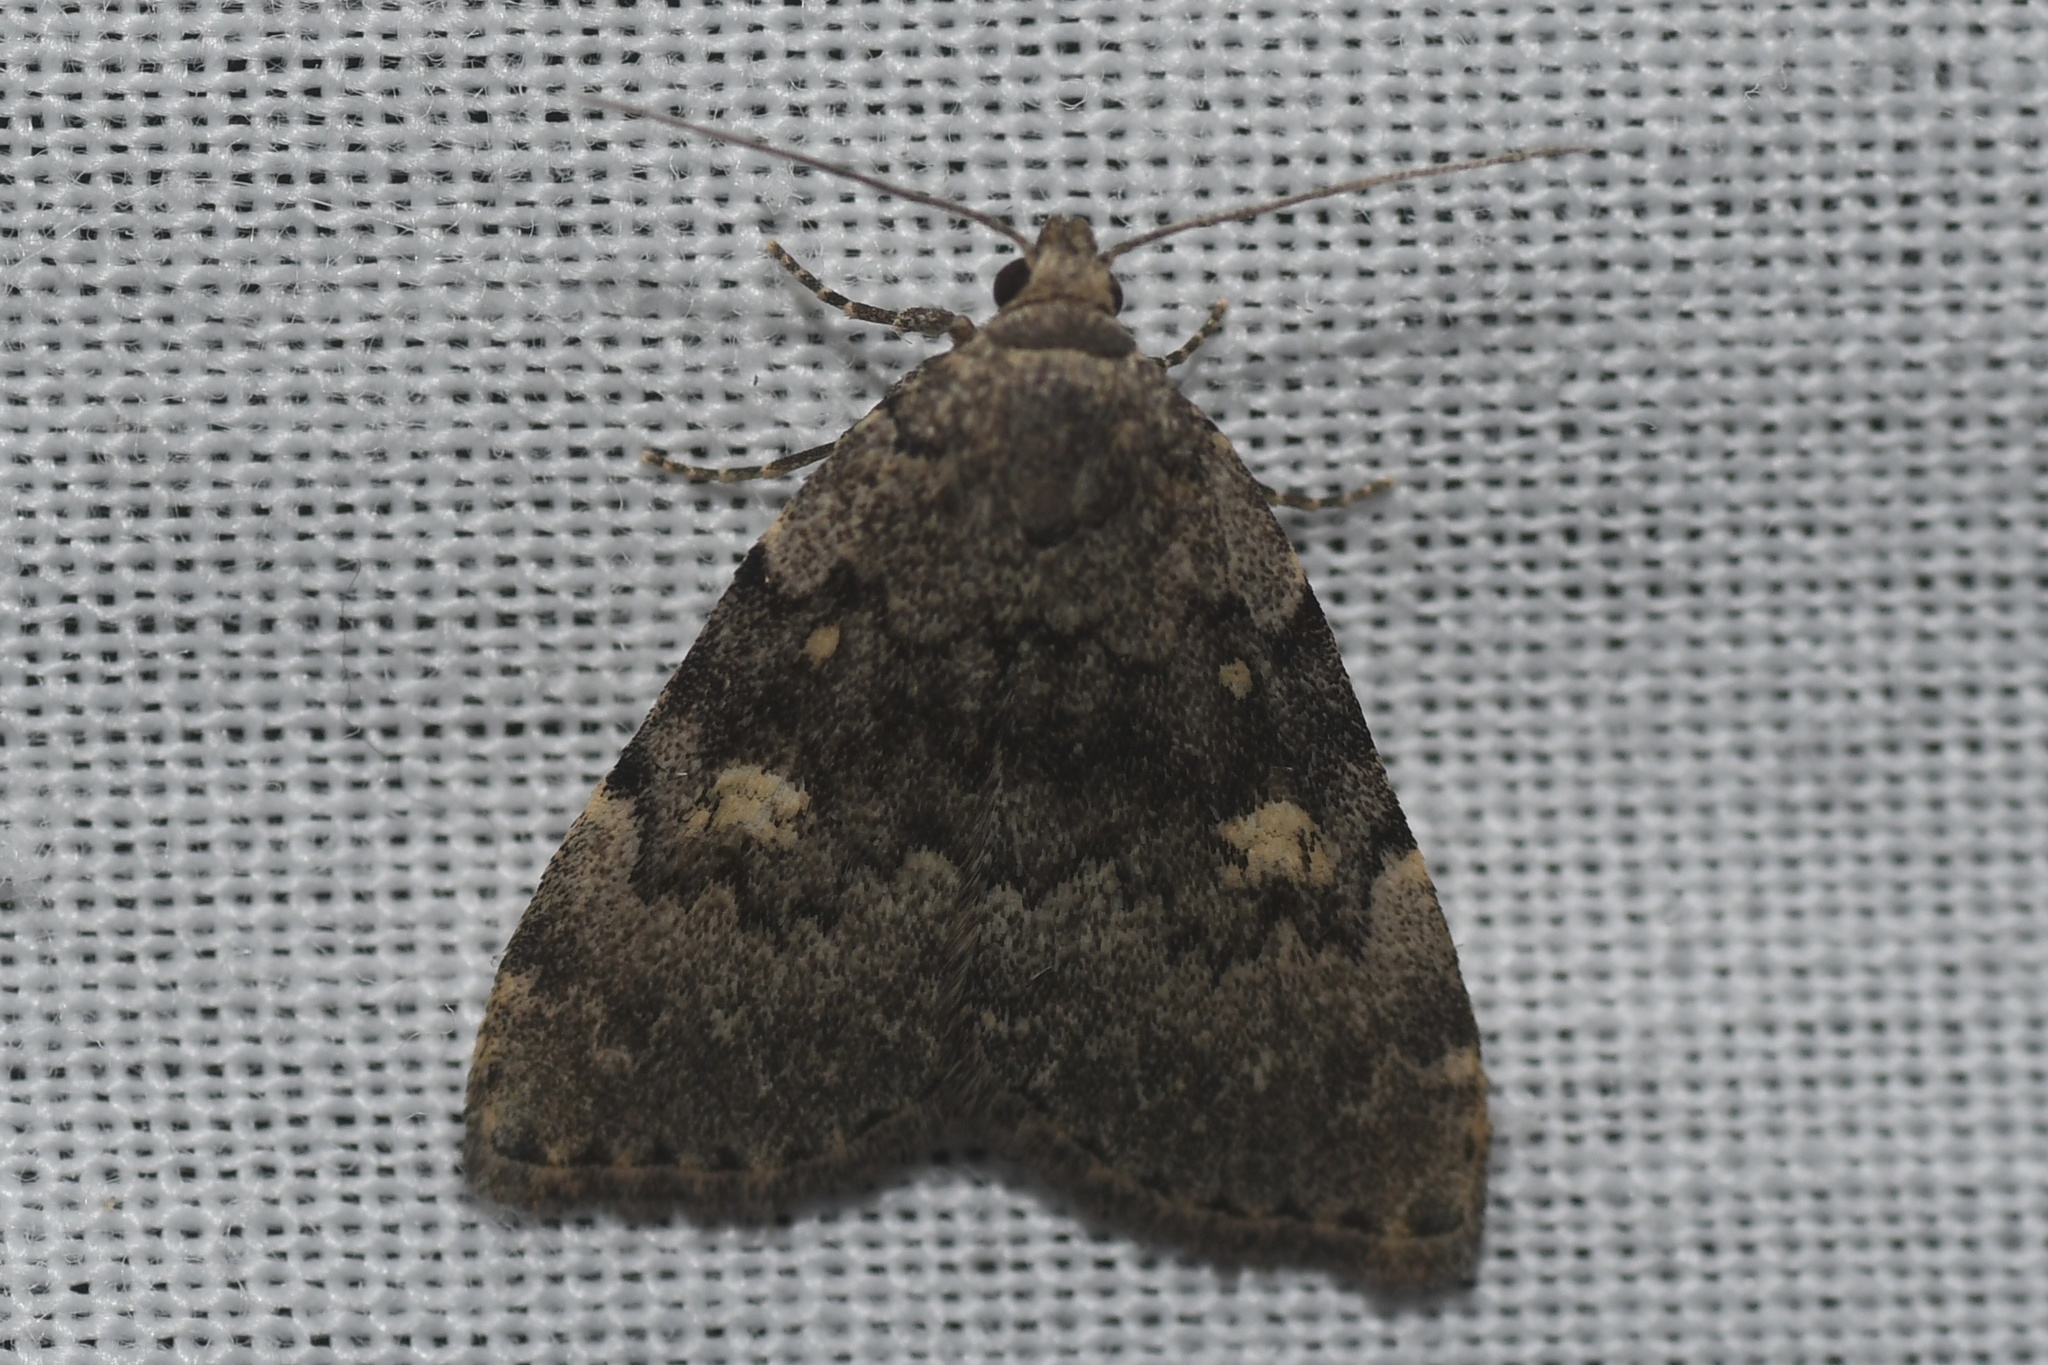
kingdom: Animalia
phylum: Arthropoda
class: Insecta
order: Lepidoptera
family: Erebidae
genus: Idia
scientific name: Idia aemula
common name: Common idia moth
